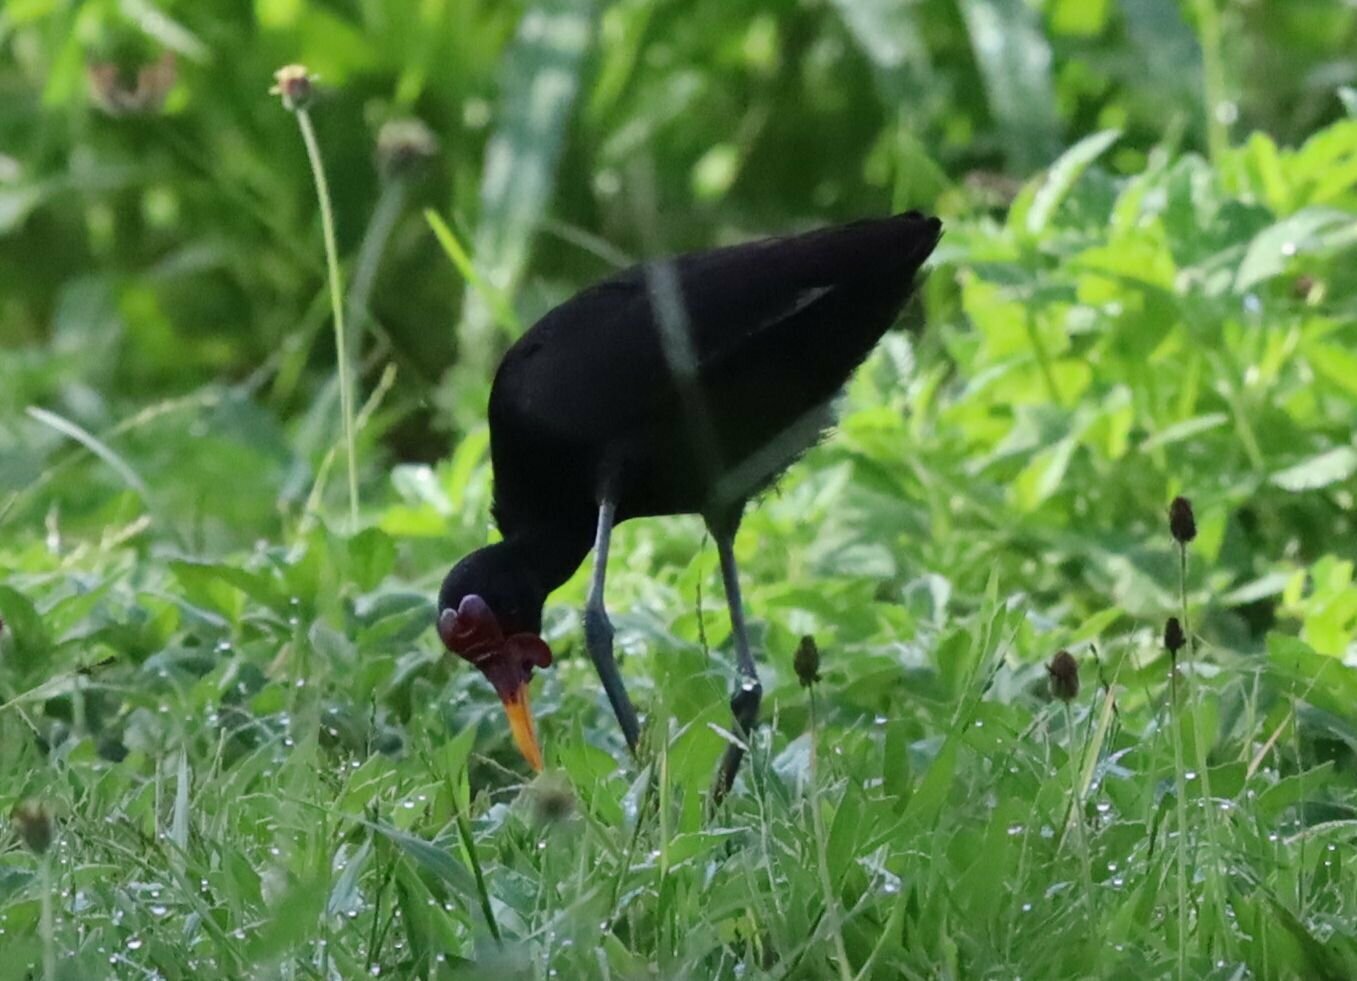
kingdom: Animalia
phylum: Chordata
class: Aves
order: Charadriiformes
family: Jacanidae
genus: Jacana
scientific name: Jacana jacana
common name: Wattled jacana
